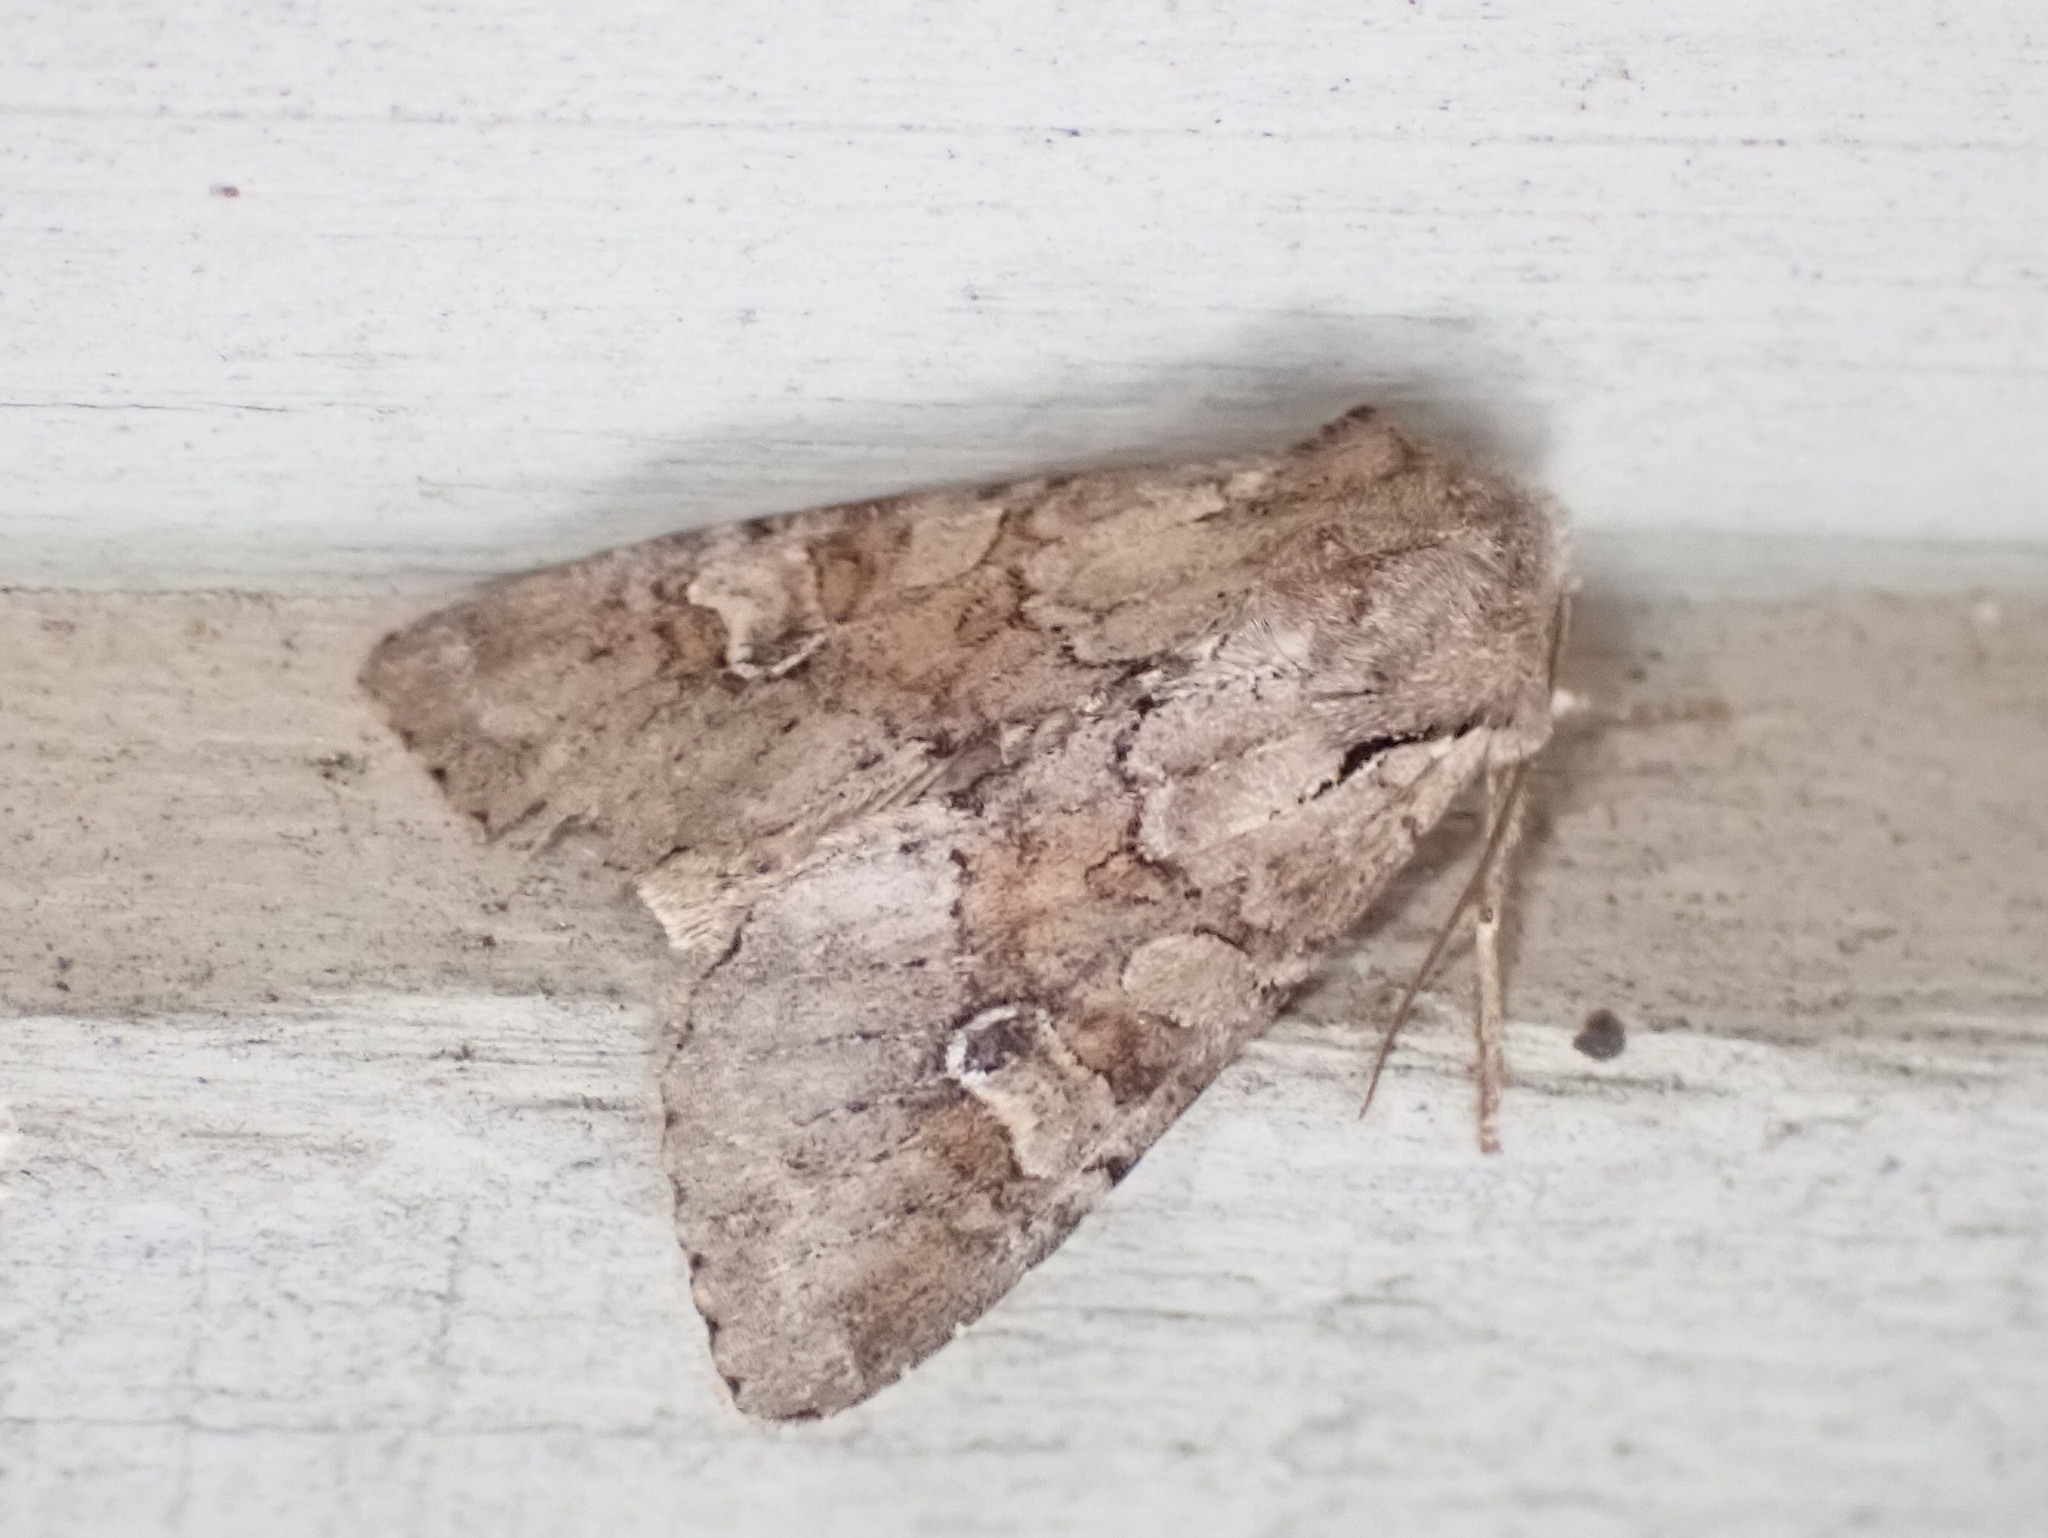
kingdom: Animalia
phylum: Arthropoda
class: Insecta
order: Lepidoptera
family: Noctuidae
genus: Apamea
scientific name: Apamea sordens
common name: Rustic shoulder-knot
